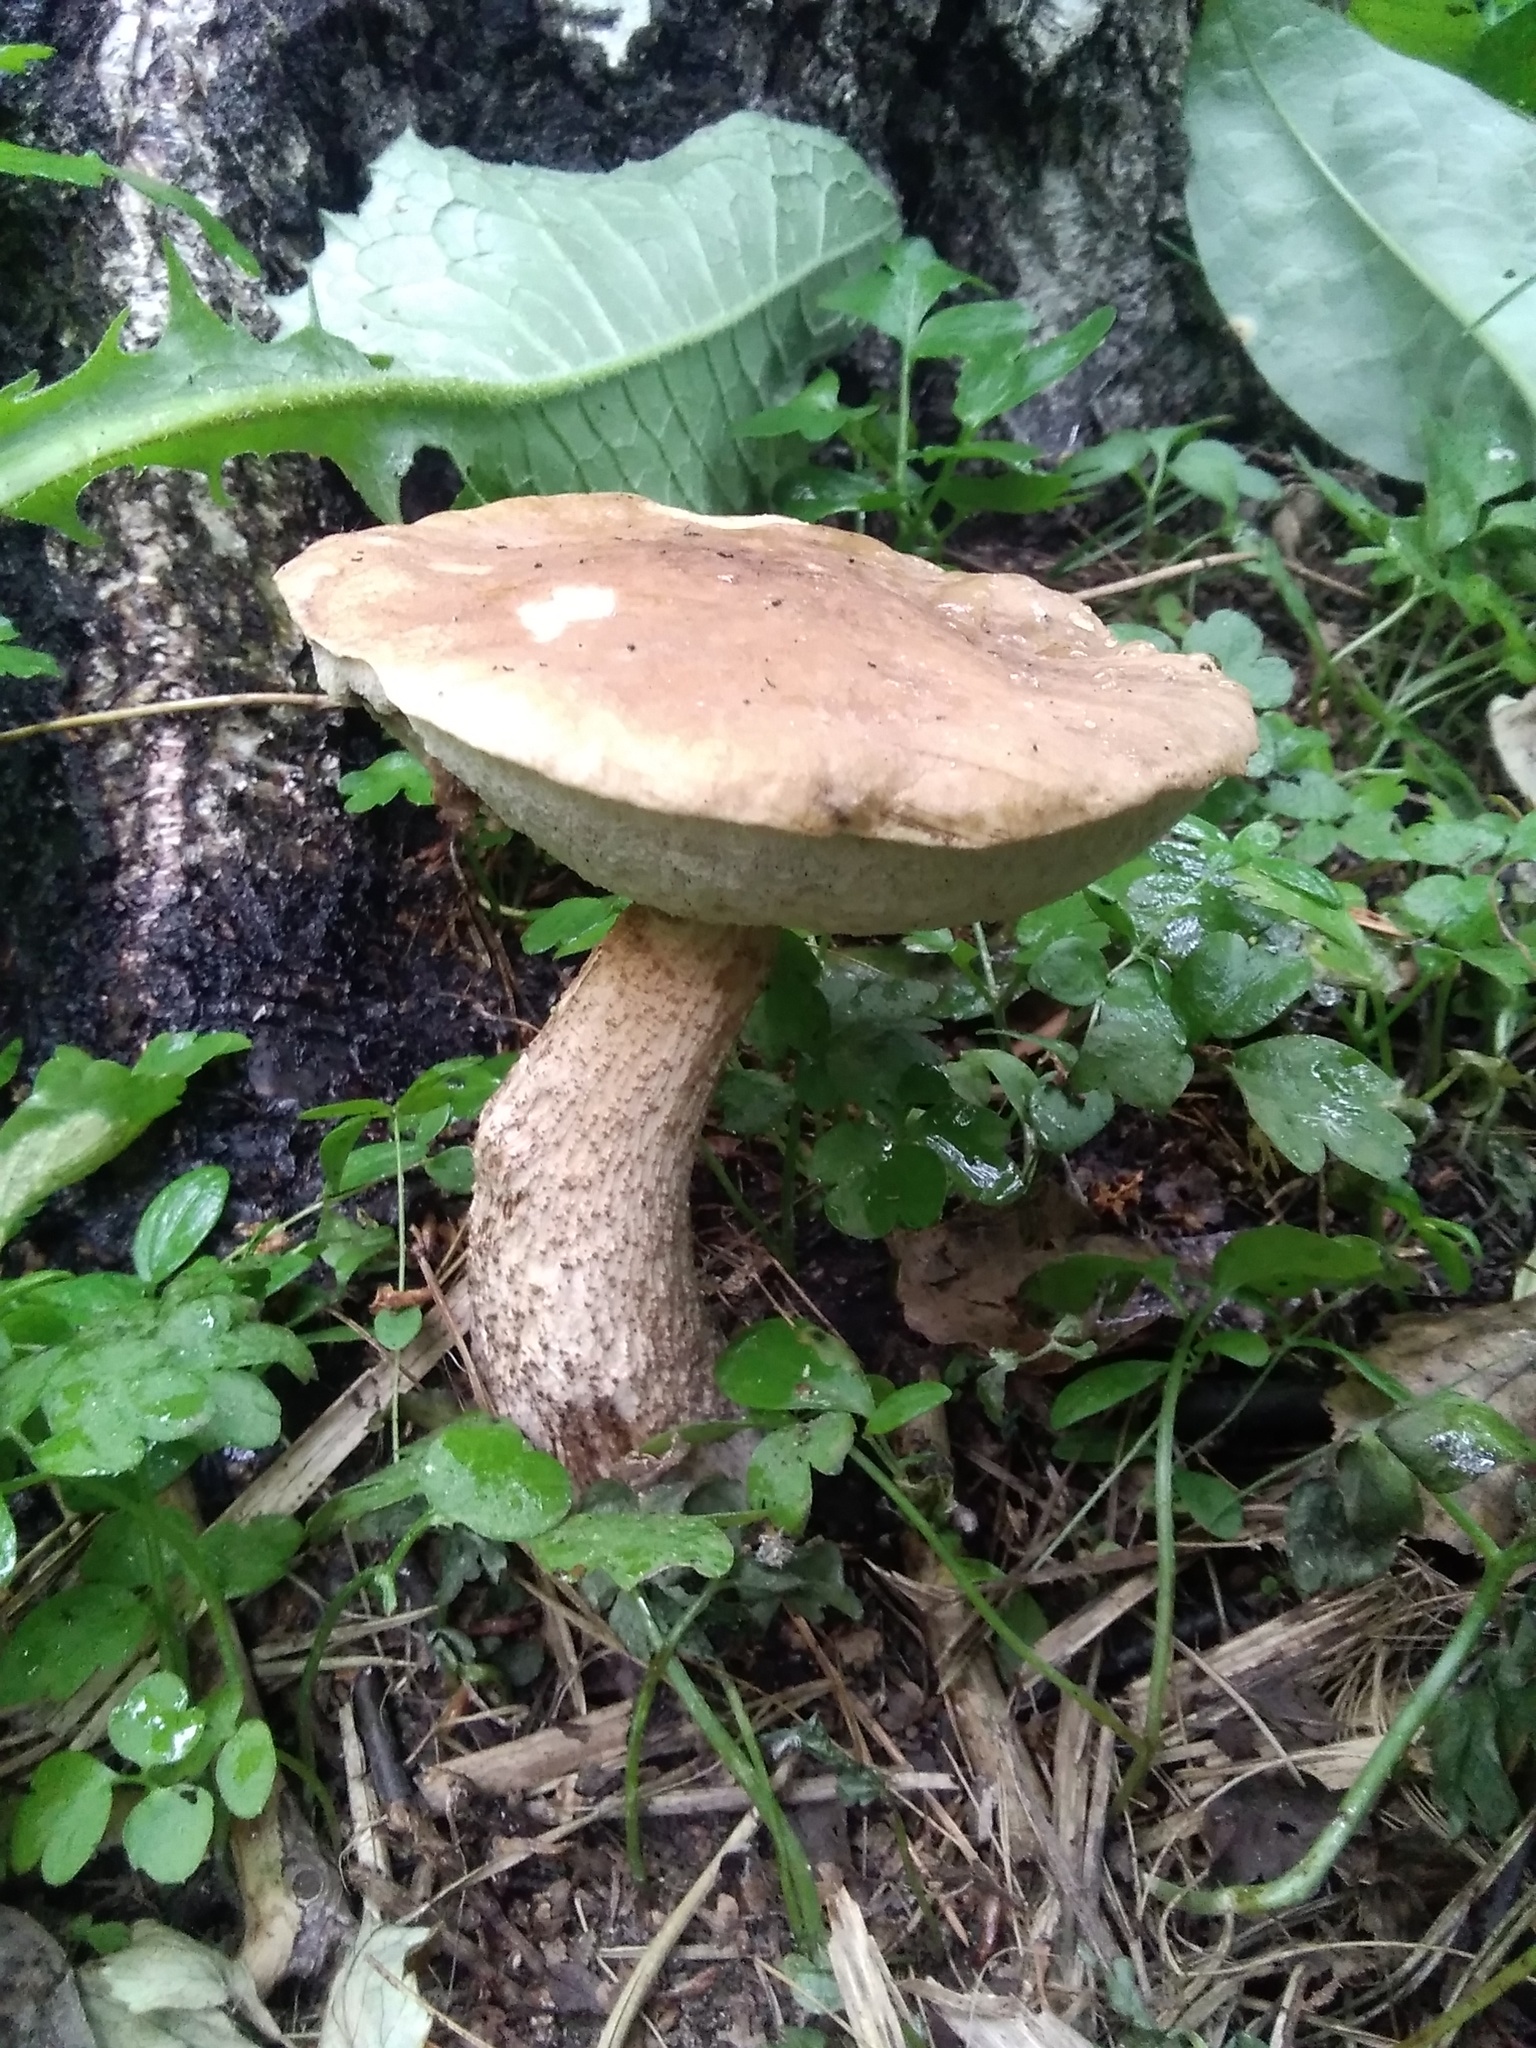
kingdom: Fungi
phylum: Basidiomycota
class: Agaricomycetes
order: Boletales
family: Boletaceae
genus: Leccinum
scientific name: Leccinum scabrum
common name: Blushing bolete
